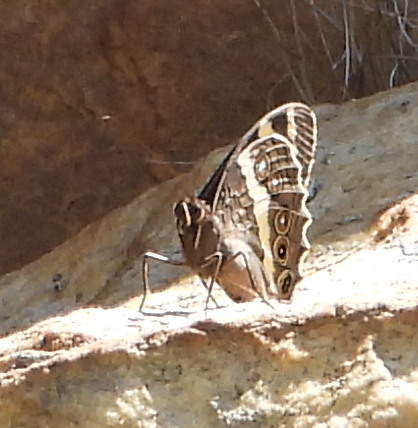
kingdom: Animalia
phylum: Arthropoda
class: Insecta
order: Lepidoptera
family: Nymphalidae
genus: Meneris
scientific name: Meneris Aeropetes tulbaghia
